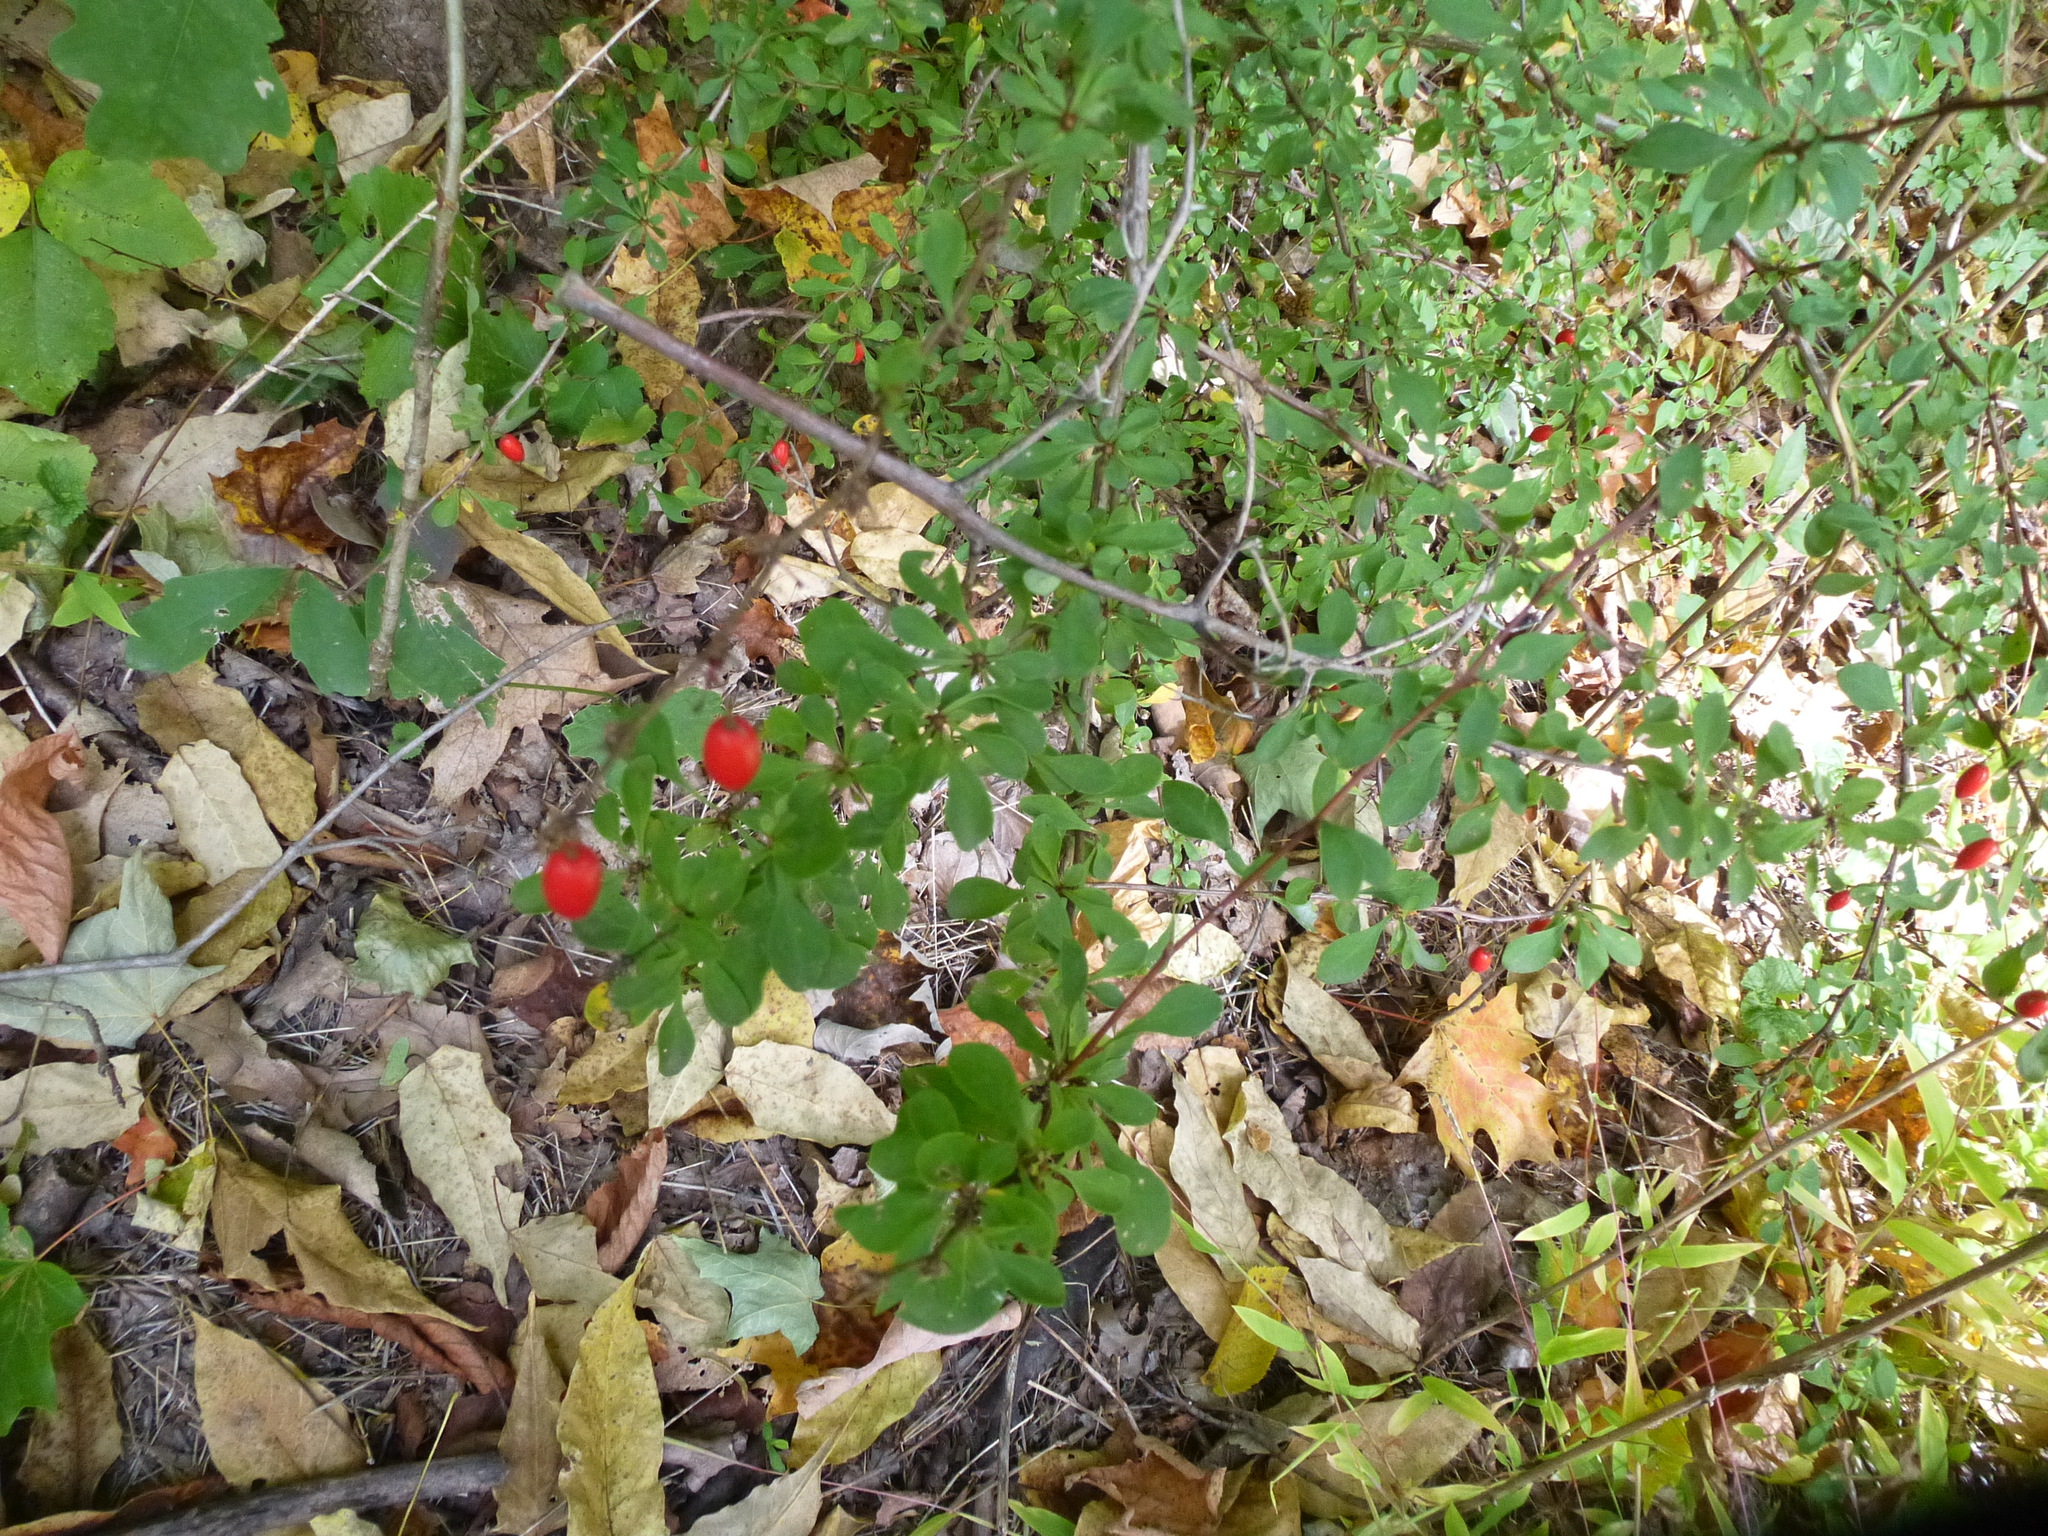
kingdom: Plantae
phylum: Tracheophyta
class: Magnoliopsida
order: Ranunculales
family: Berberidaceae
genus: Berberis
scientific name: Berberis thunbergii
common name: Japanese barberry
